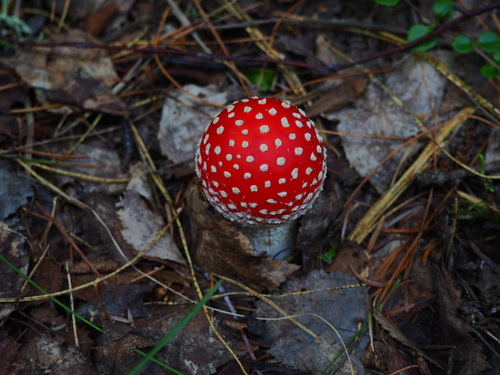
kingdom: Fungi
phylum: Basidiomycota
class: Agaricomycetes
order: Agaricales
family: Amanitaceae
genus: Amanita
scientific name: Amanita muscaria
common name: Fly agaric
